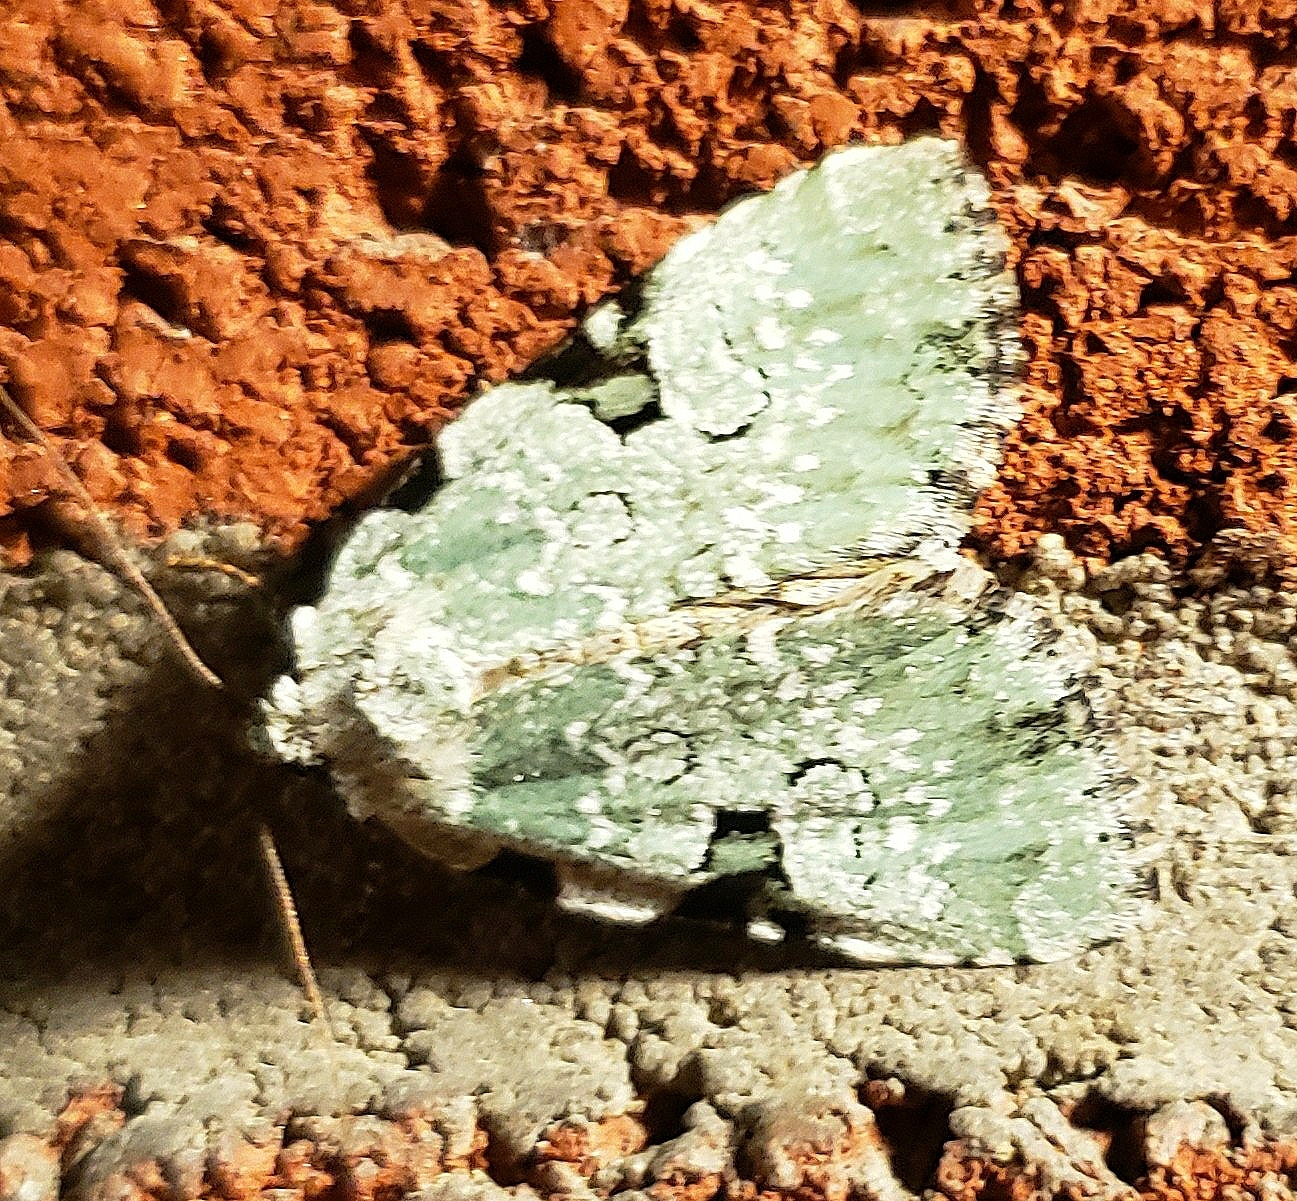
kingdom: Animalia
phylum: Arthropoda
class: Insecta
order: Lepidoptera
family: Noctuidae
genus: Leuconycta
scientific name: Leuconycta diphteroides
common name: Green leuconycta moth
